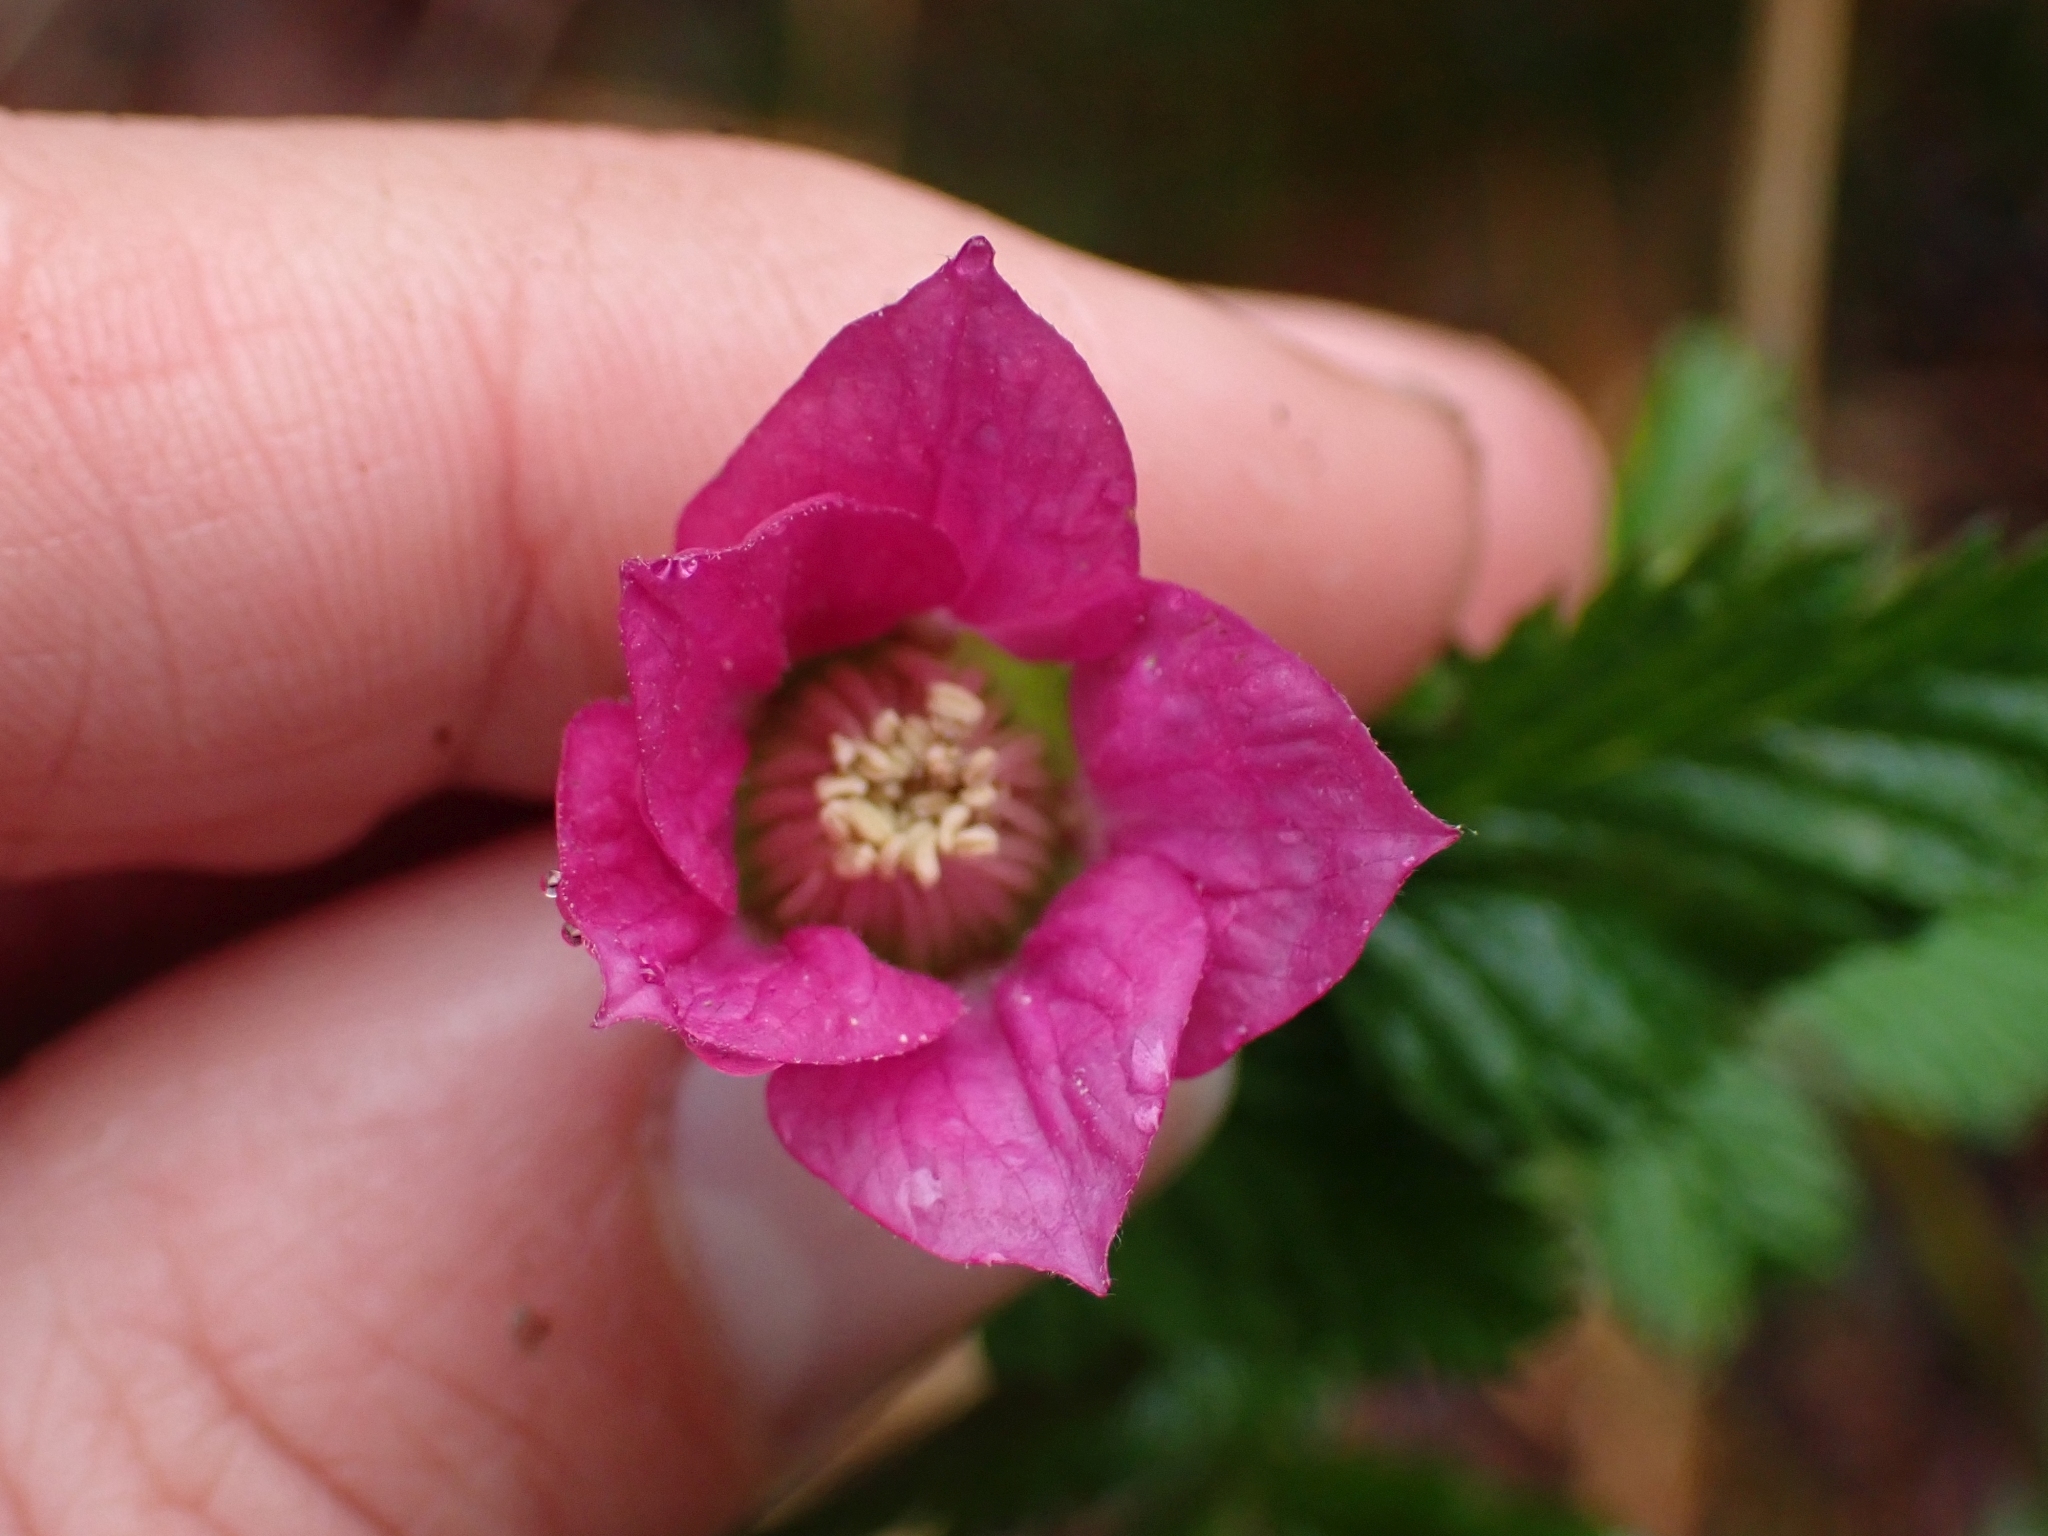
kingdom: Plantae
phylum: Tracheophyta
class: Magnoliopsida
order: Rosales
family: Rosaceae
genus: Rubus
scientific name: Rubus spectabilis
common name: Salmonberry
